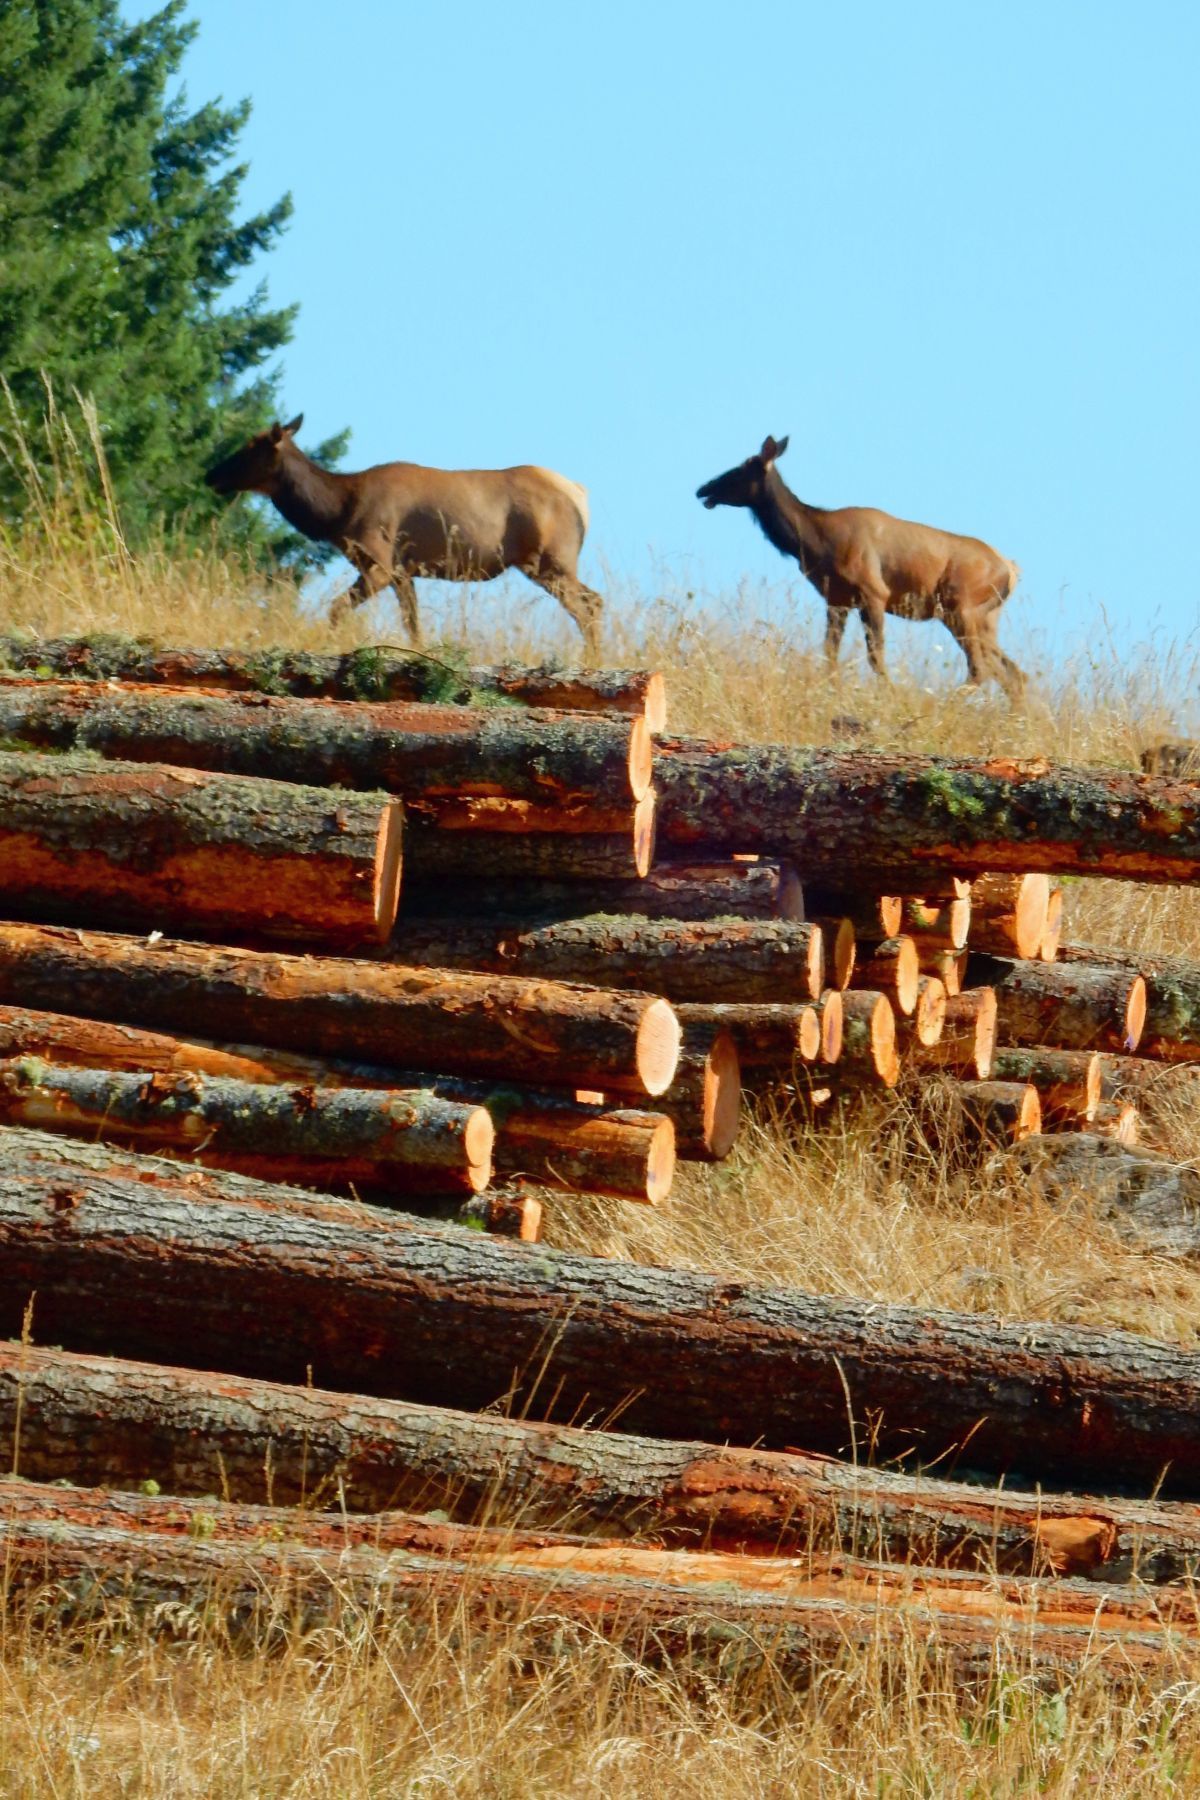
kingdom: Animalia
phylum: Chordata
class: Mammalia
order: Artiodactyla
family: Cervidae
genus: Cervus
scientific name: Cervus elaphus
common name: Red deer
